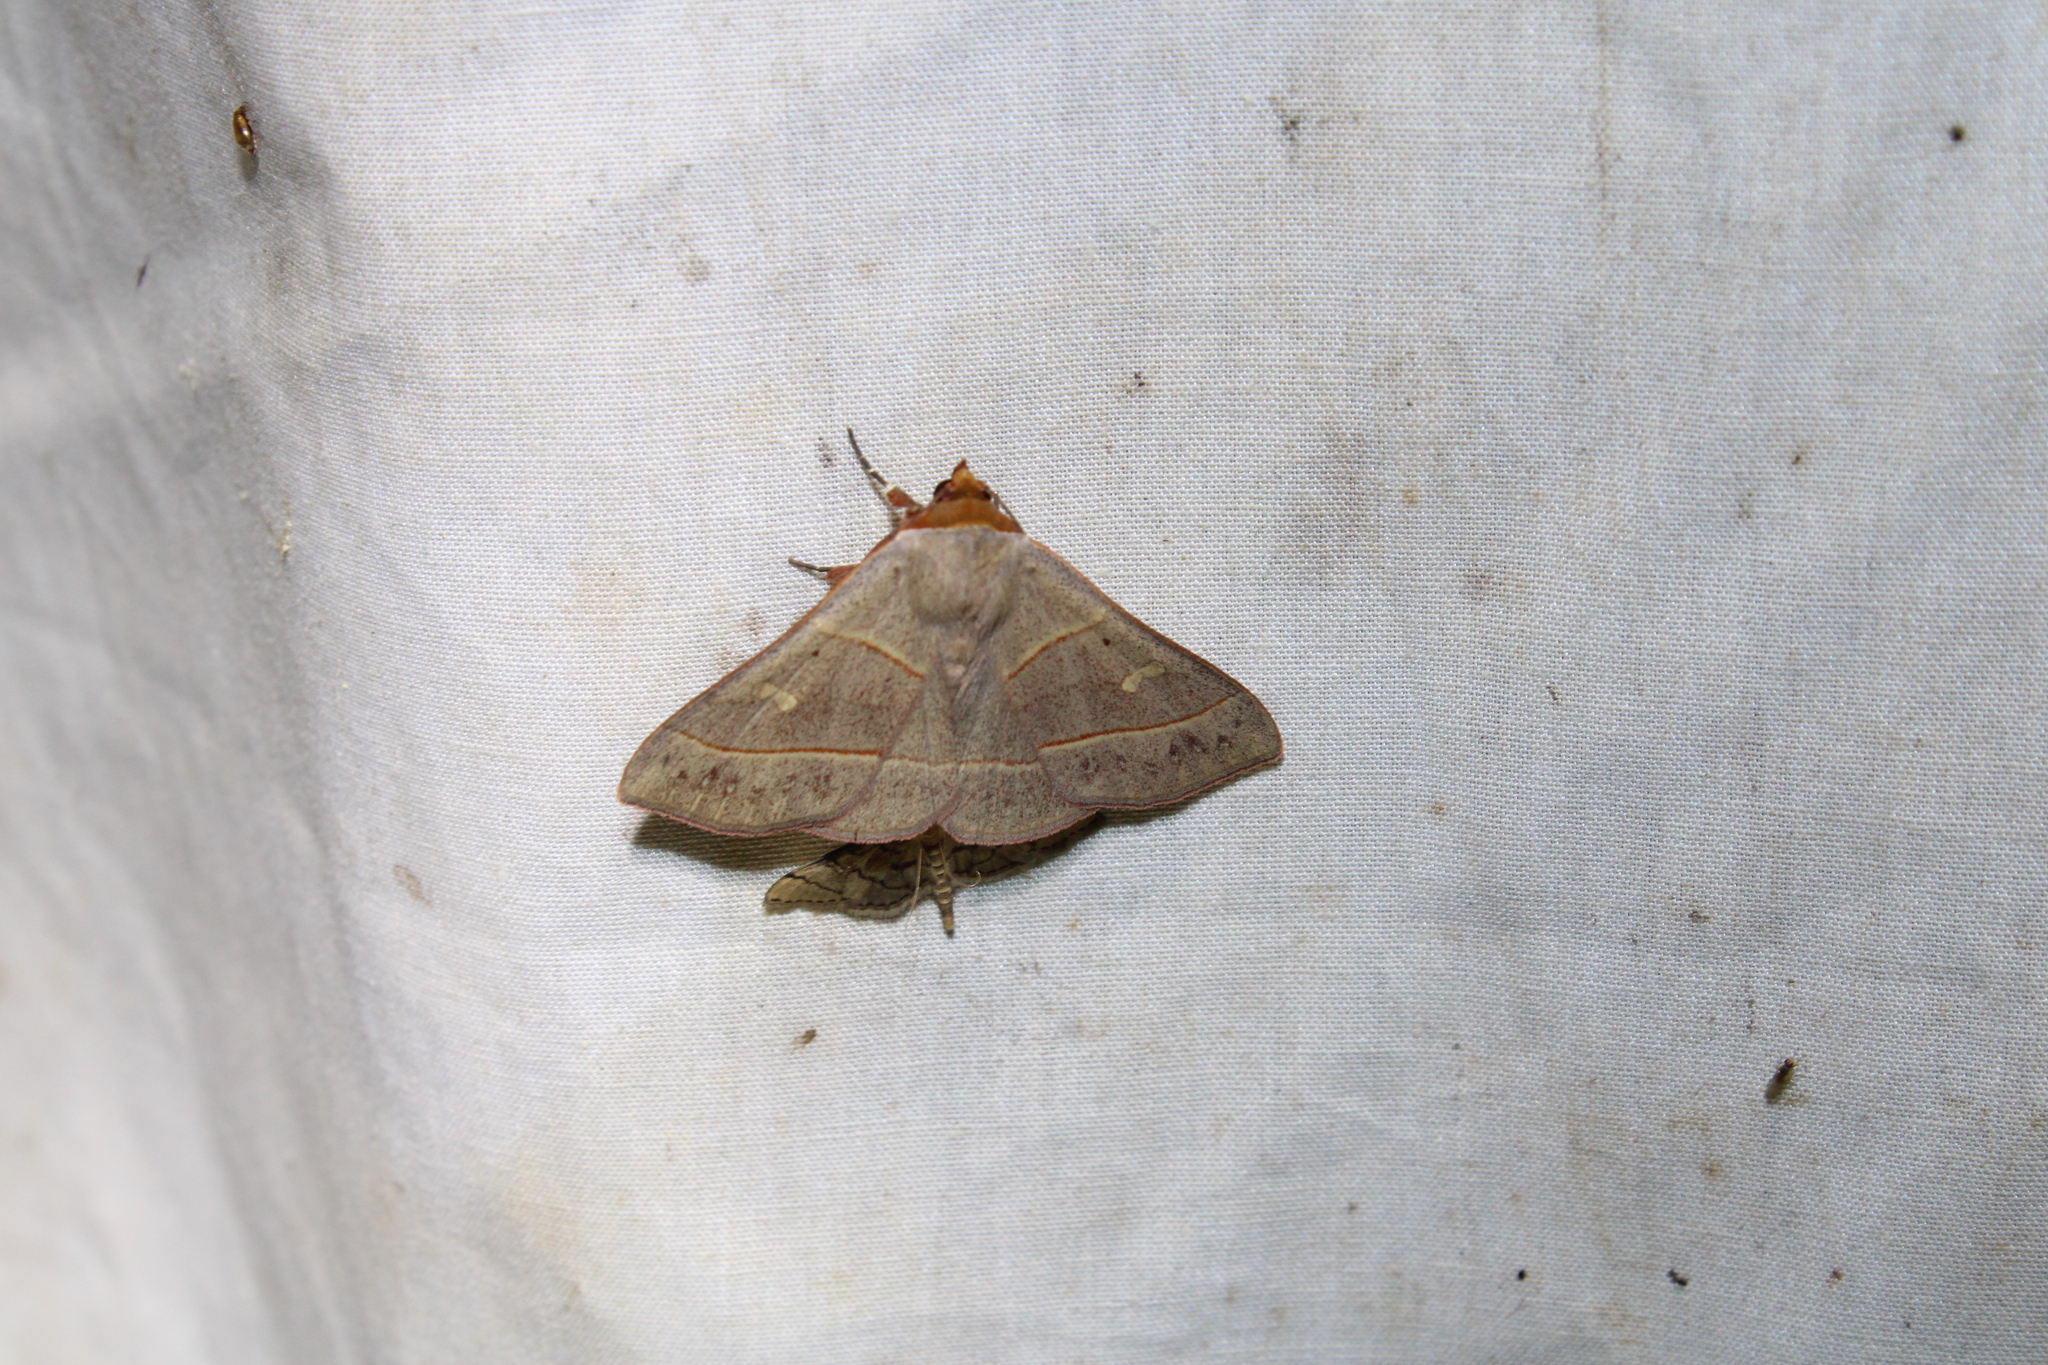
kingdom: Animalia
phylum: Arthropoda
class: Insecta
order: Lepidoptera
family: Erebidae
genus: Panopoda
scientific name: Panopoda rufimargo
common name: Red-lined panopoda moth
